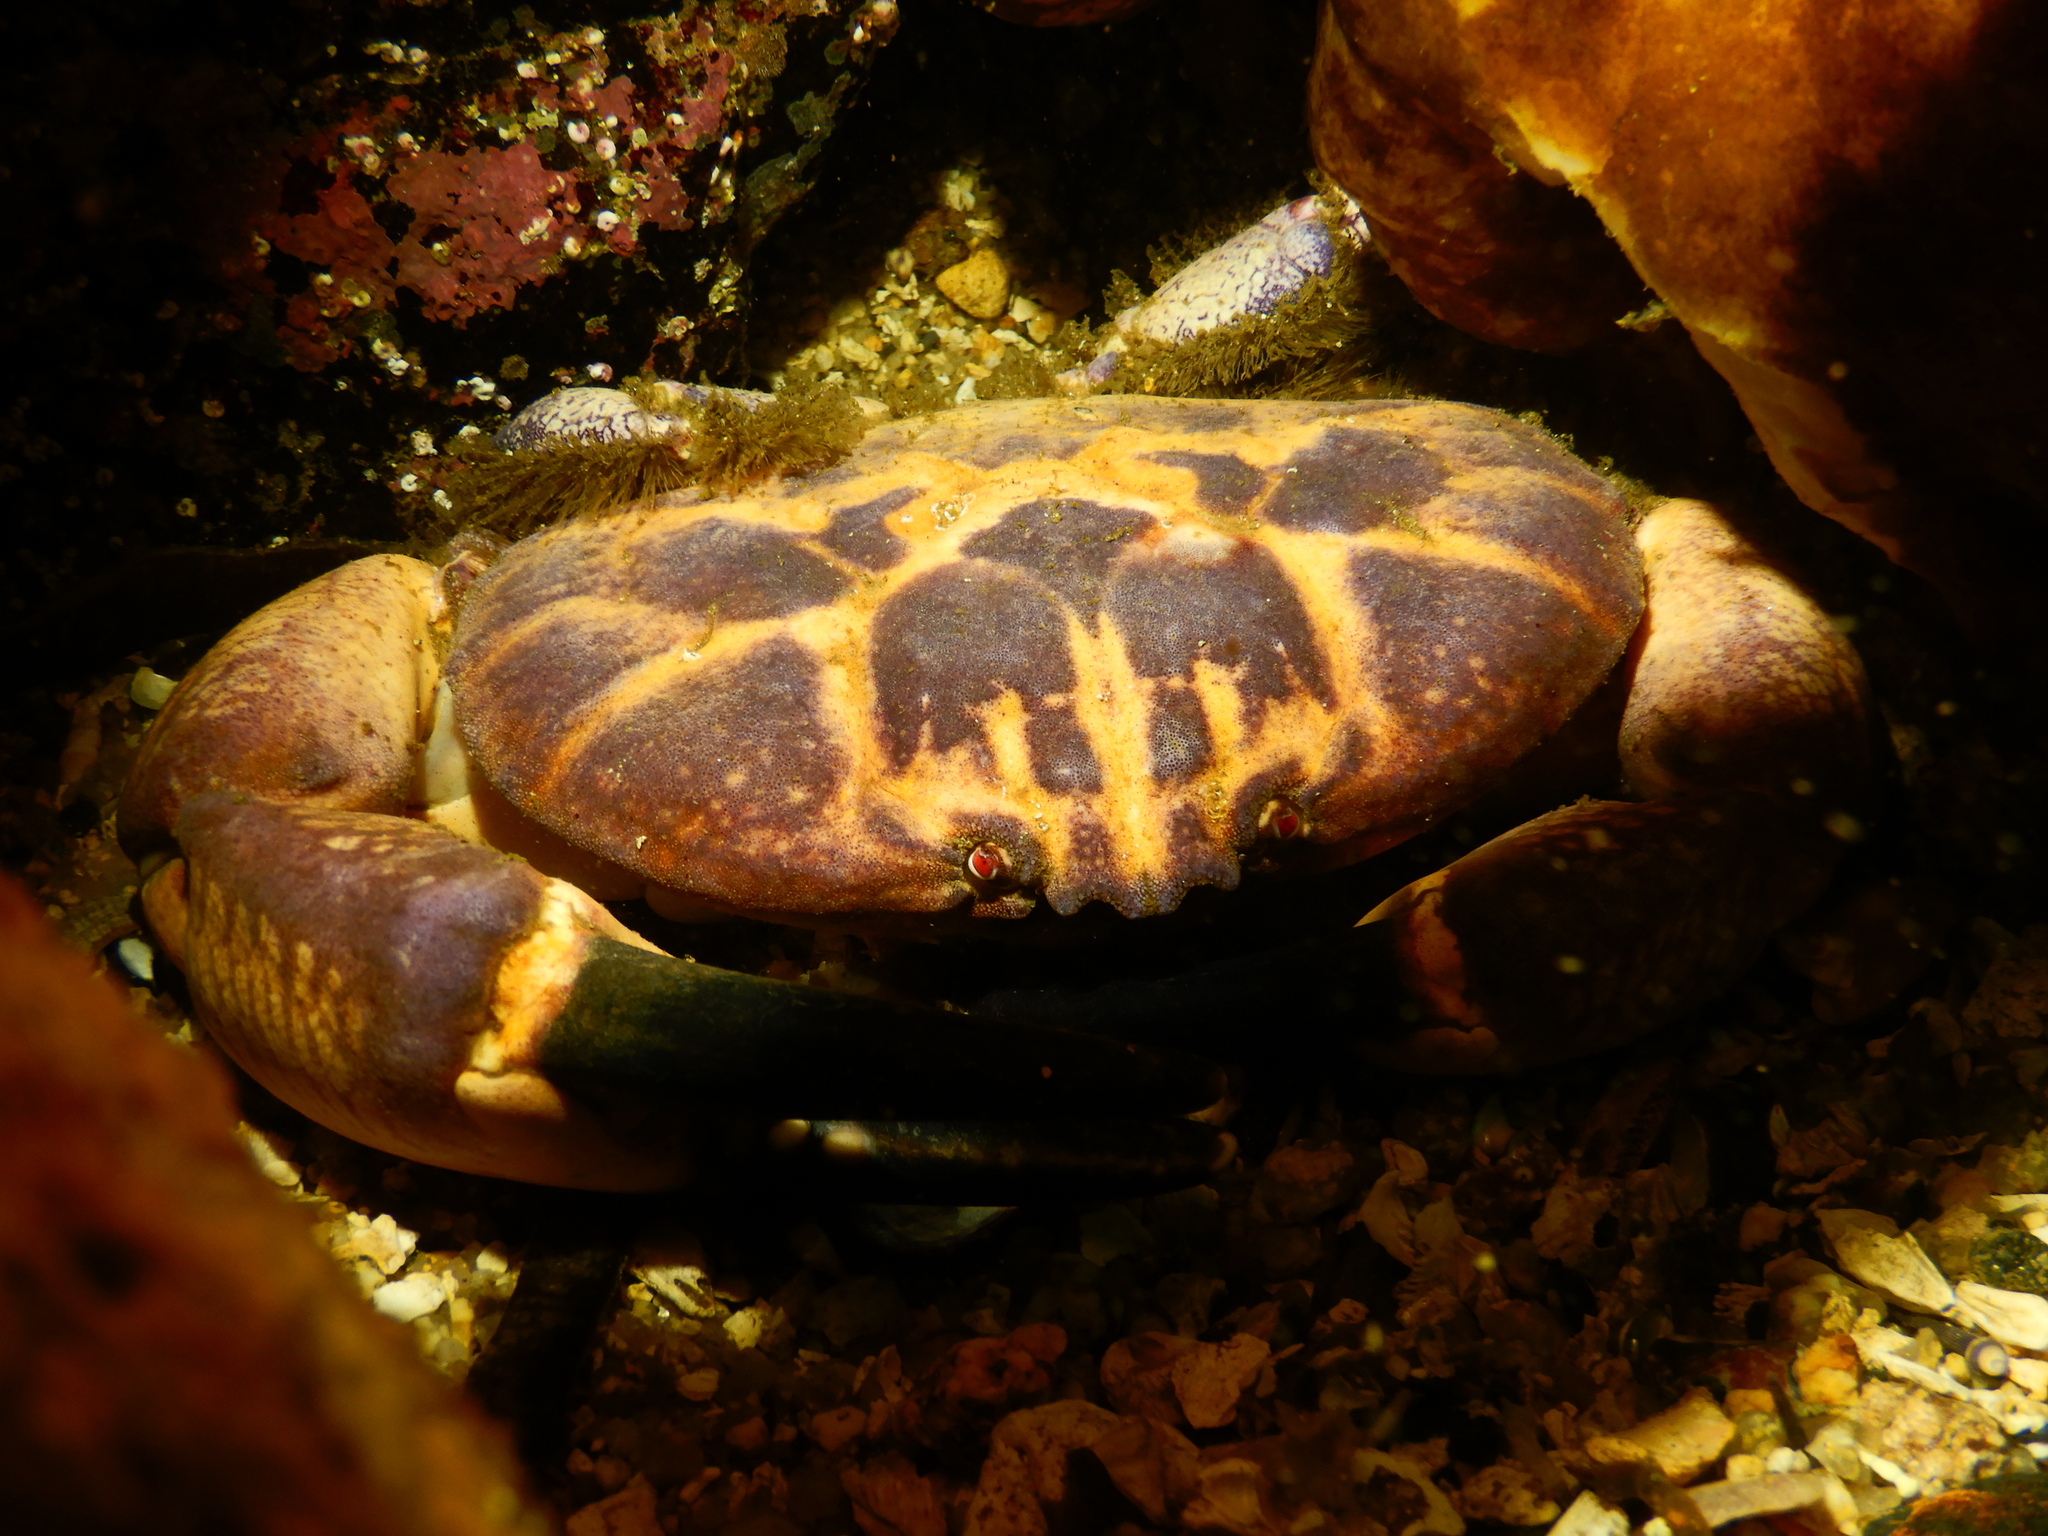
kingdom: Animalia
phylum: Arthropoda
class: Malacostraca
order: Decapoda
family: Xanthidae
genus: Paraxanthus
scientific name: Paraxanthus barbiger
